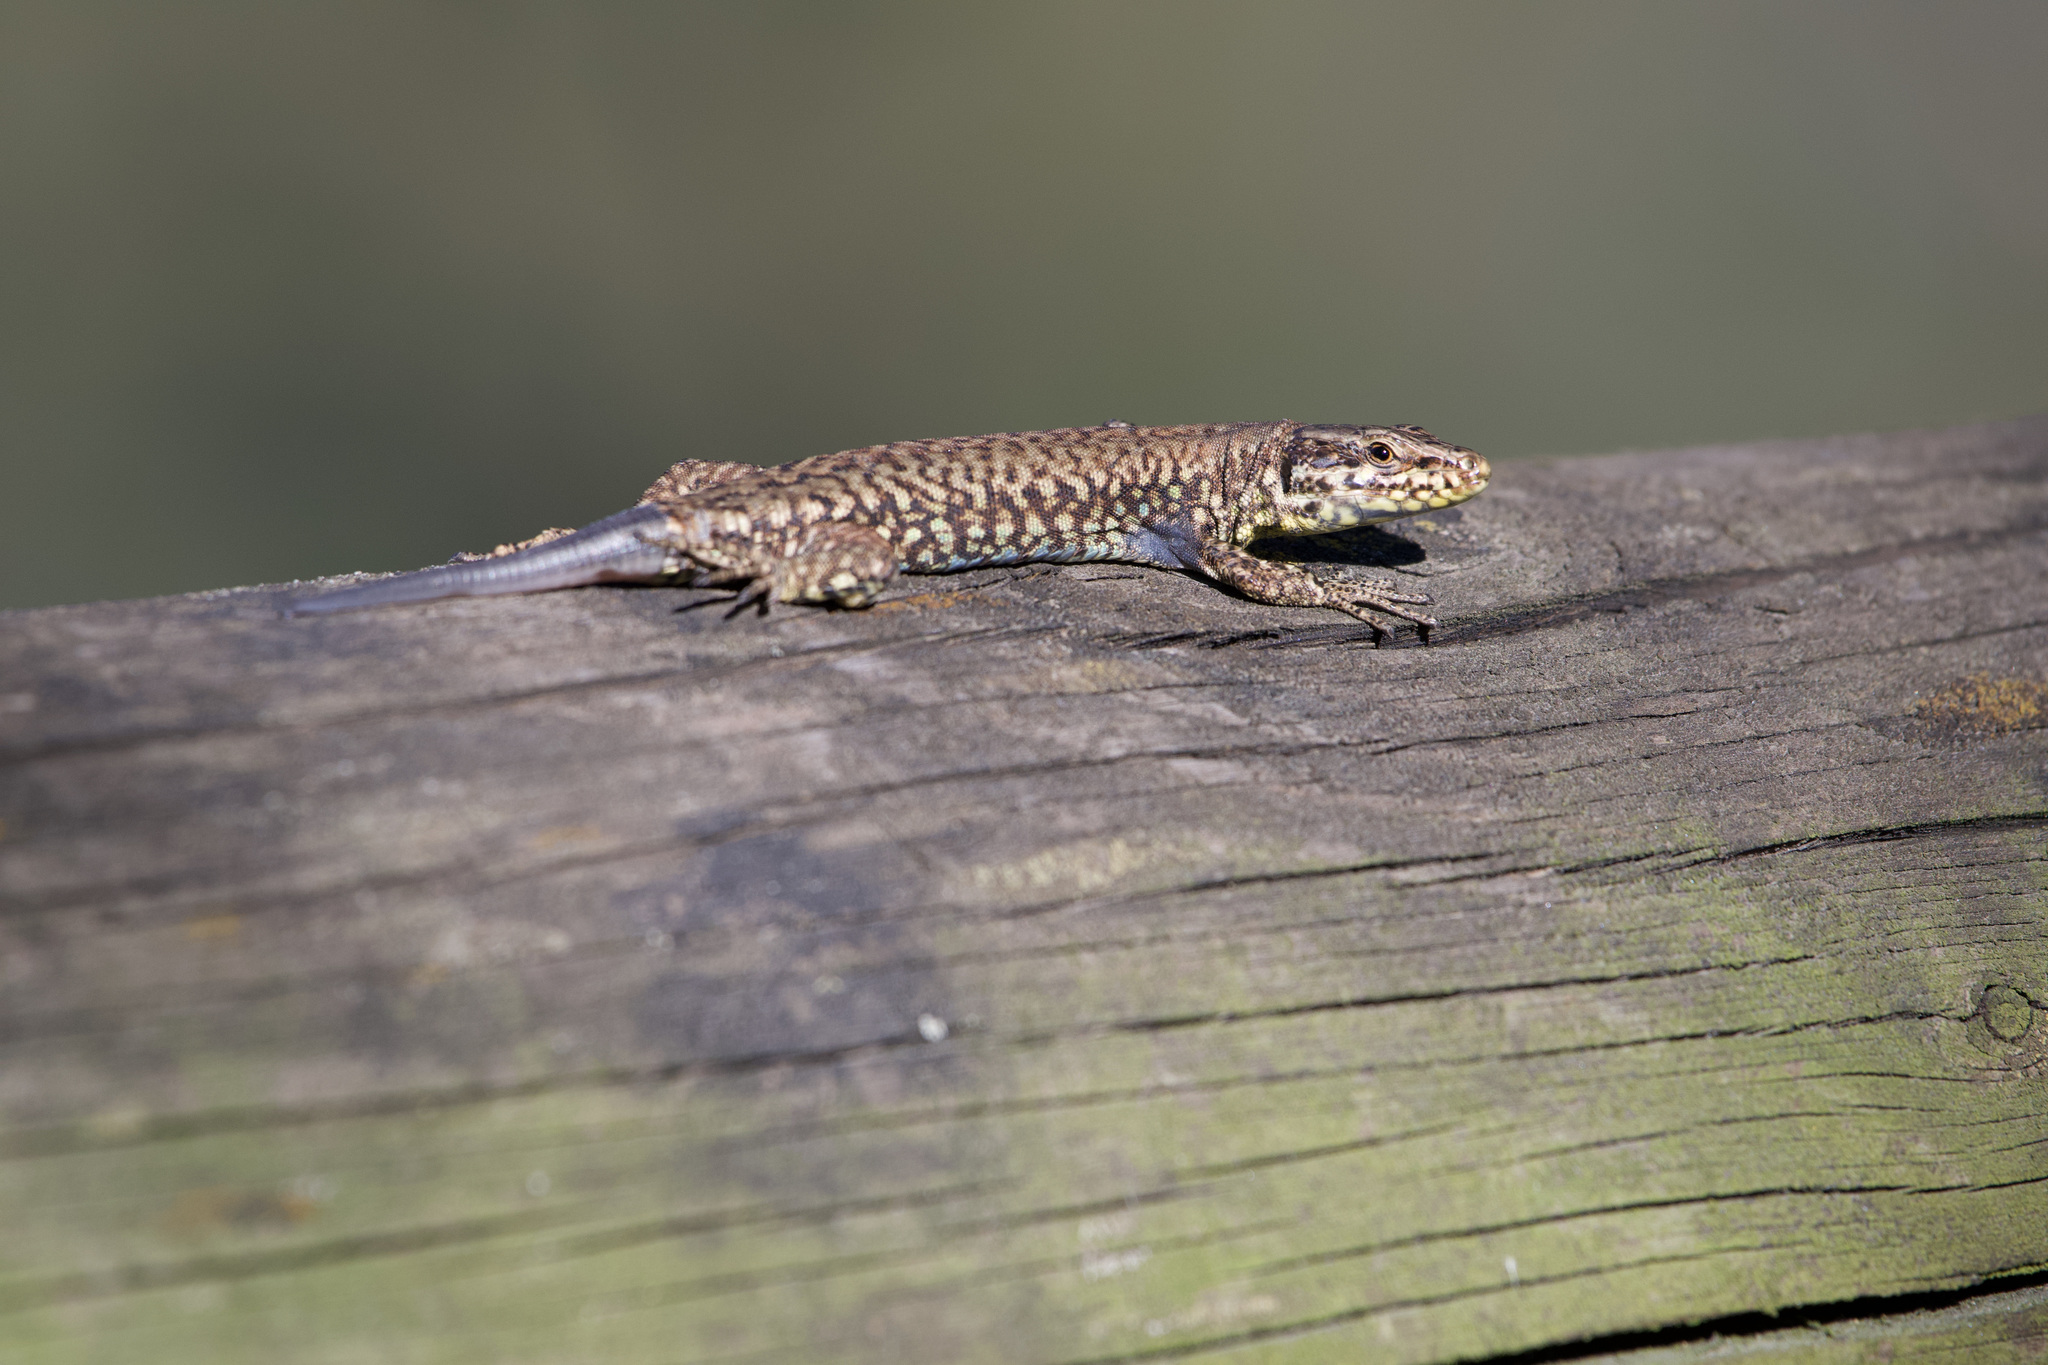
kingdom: Animalia
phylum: Chordata
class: Squamata
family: Lacertidae
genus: Podarcis
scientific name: Podarcis muralis
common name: Common wall lizard
